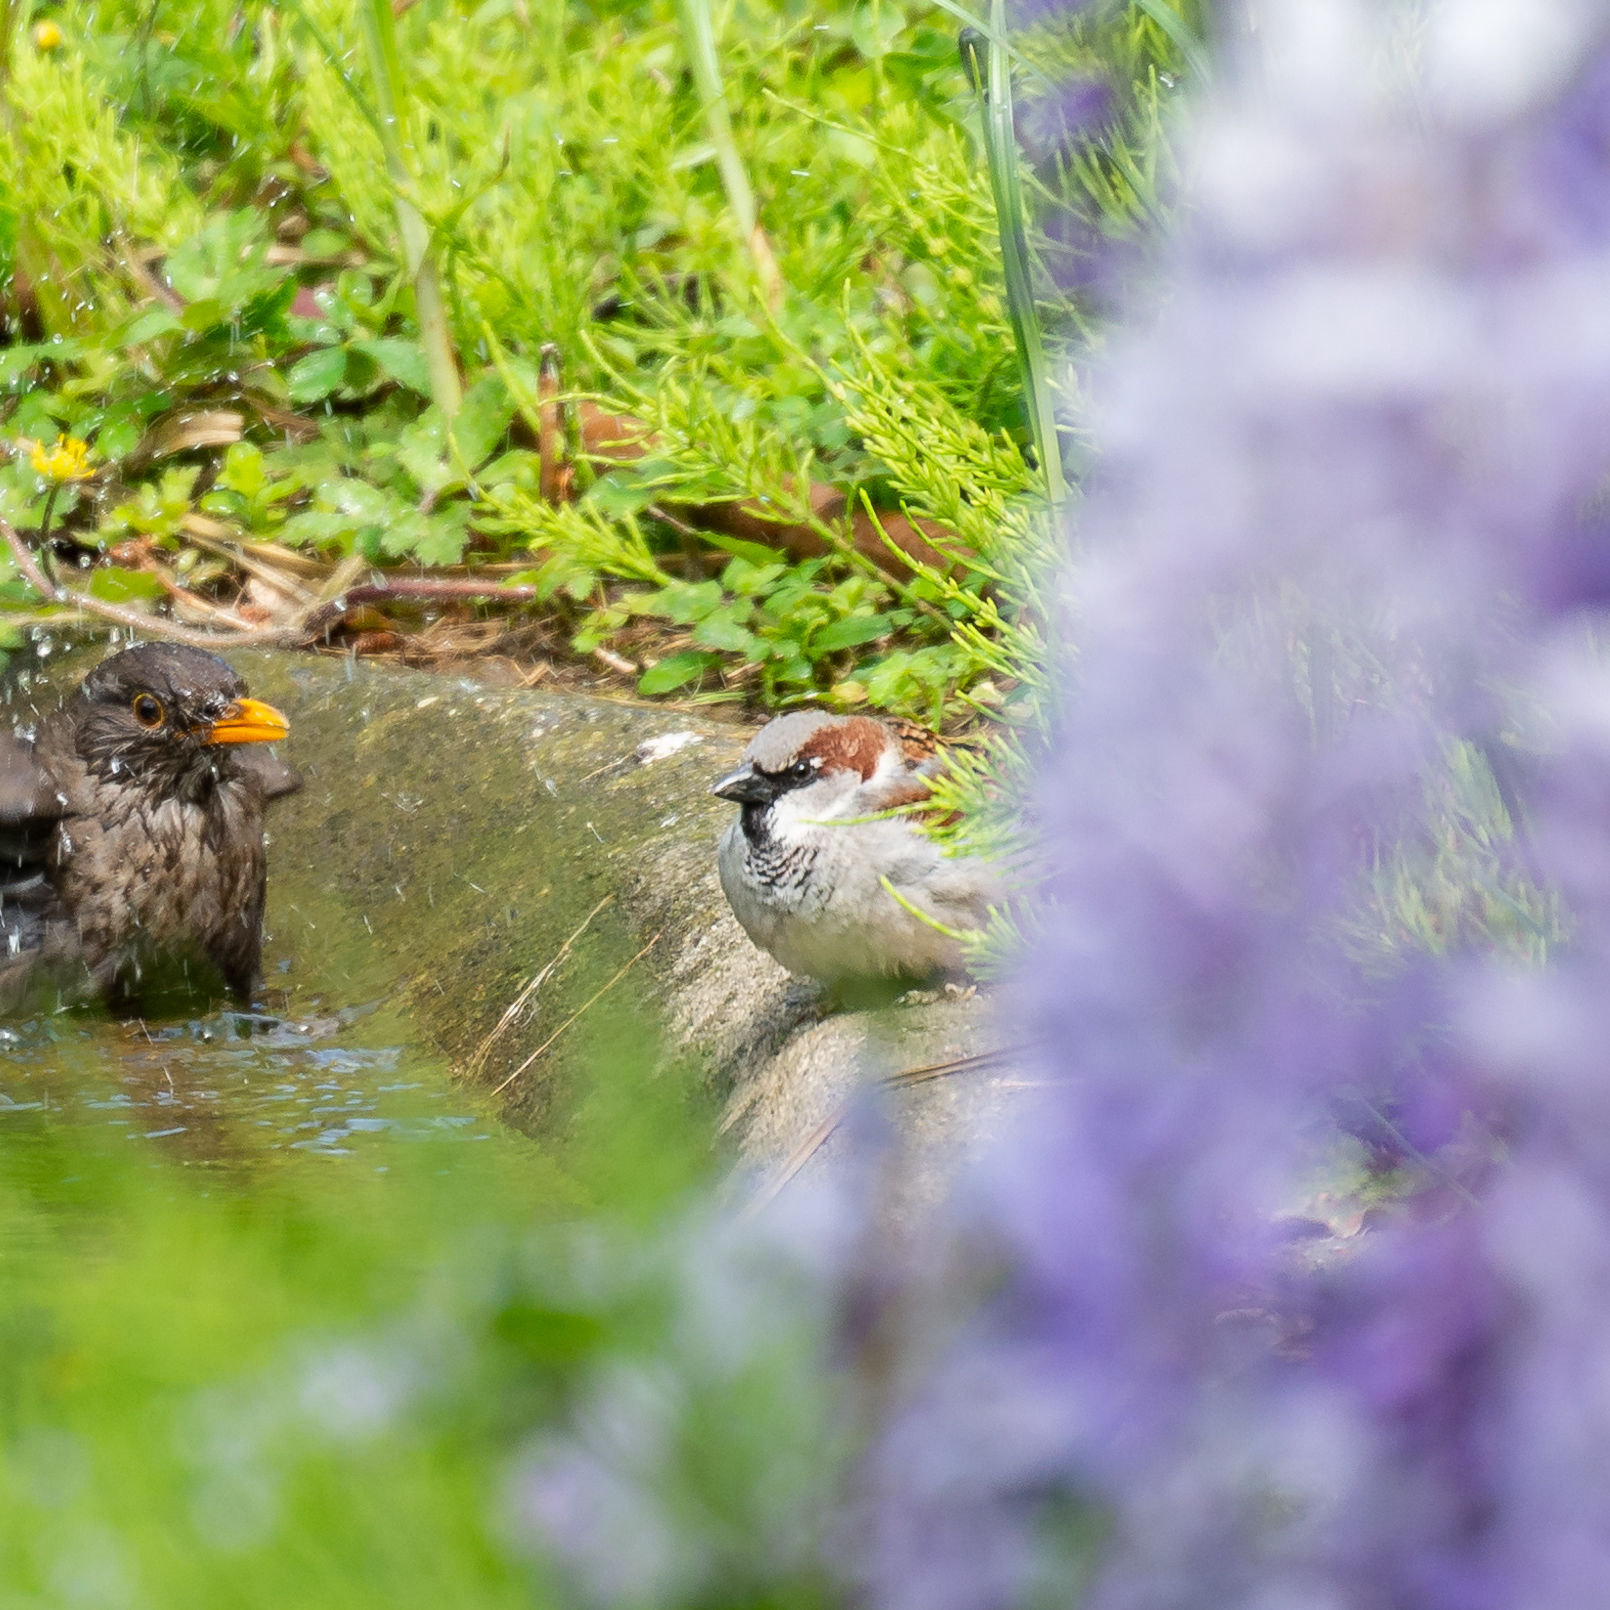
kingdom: Animalia
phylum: Chordata
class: Aves
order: Passeriformes
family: Passeridae
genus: Passer
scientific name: Passer domesticus
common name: House sparrow
